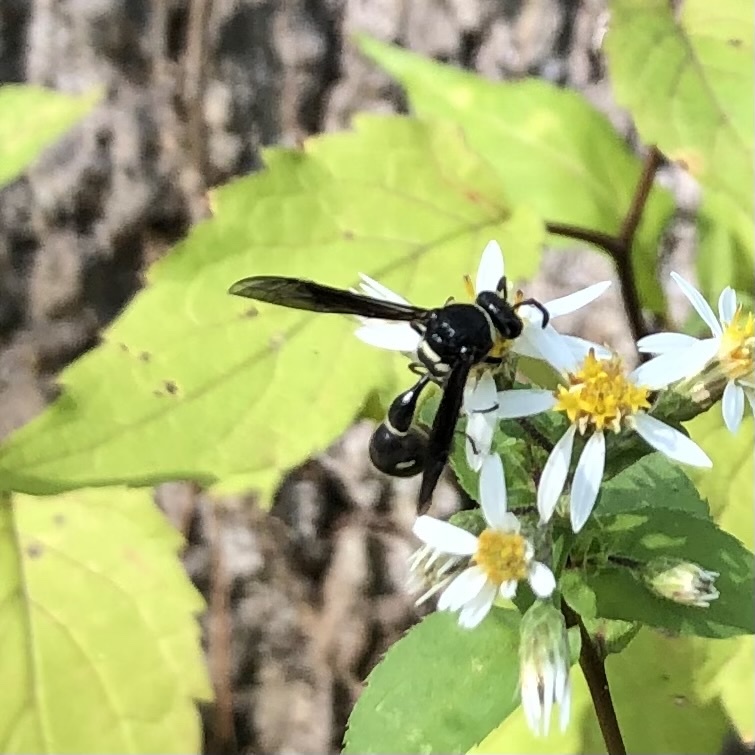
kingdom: Animalia
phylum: Arthropoda
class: Insecta
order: Hymenoptera
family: Vespidae
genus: Eumenes
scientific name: Eumenes fraternus
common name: Fraternal potter wasp
